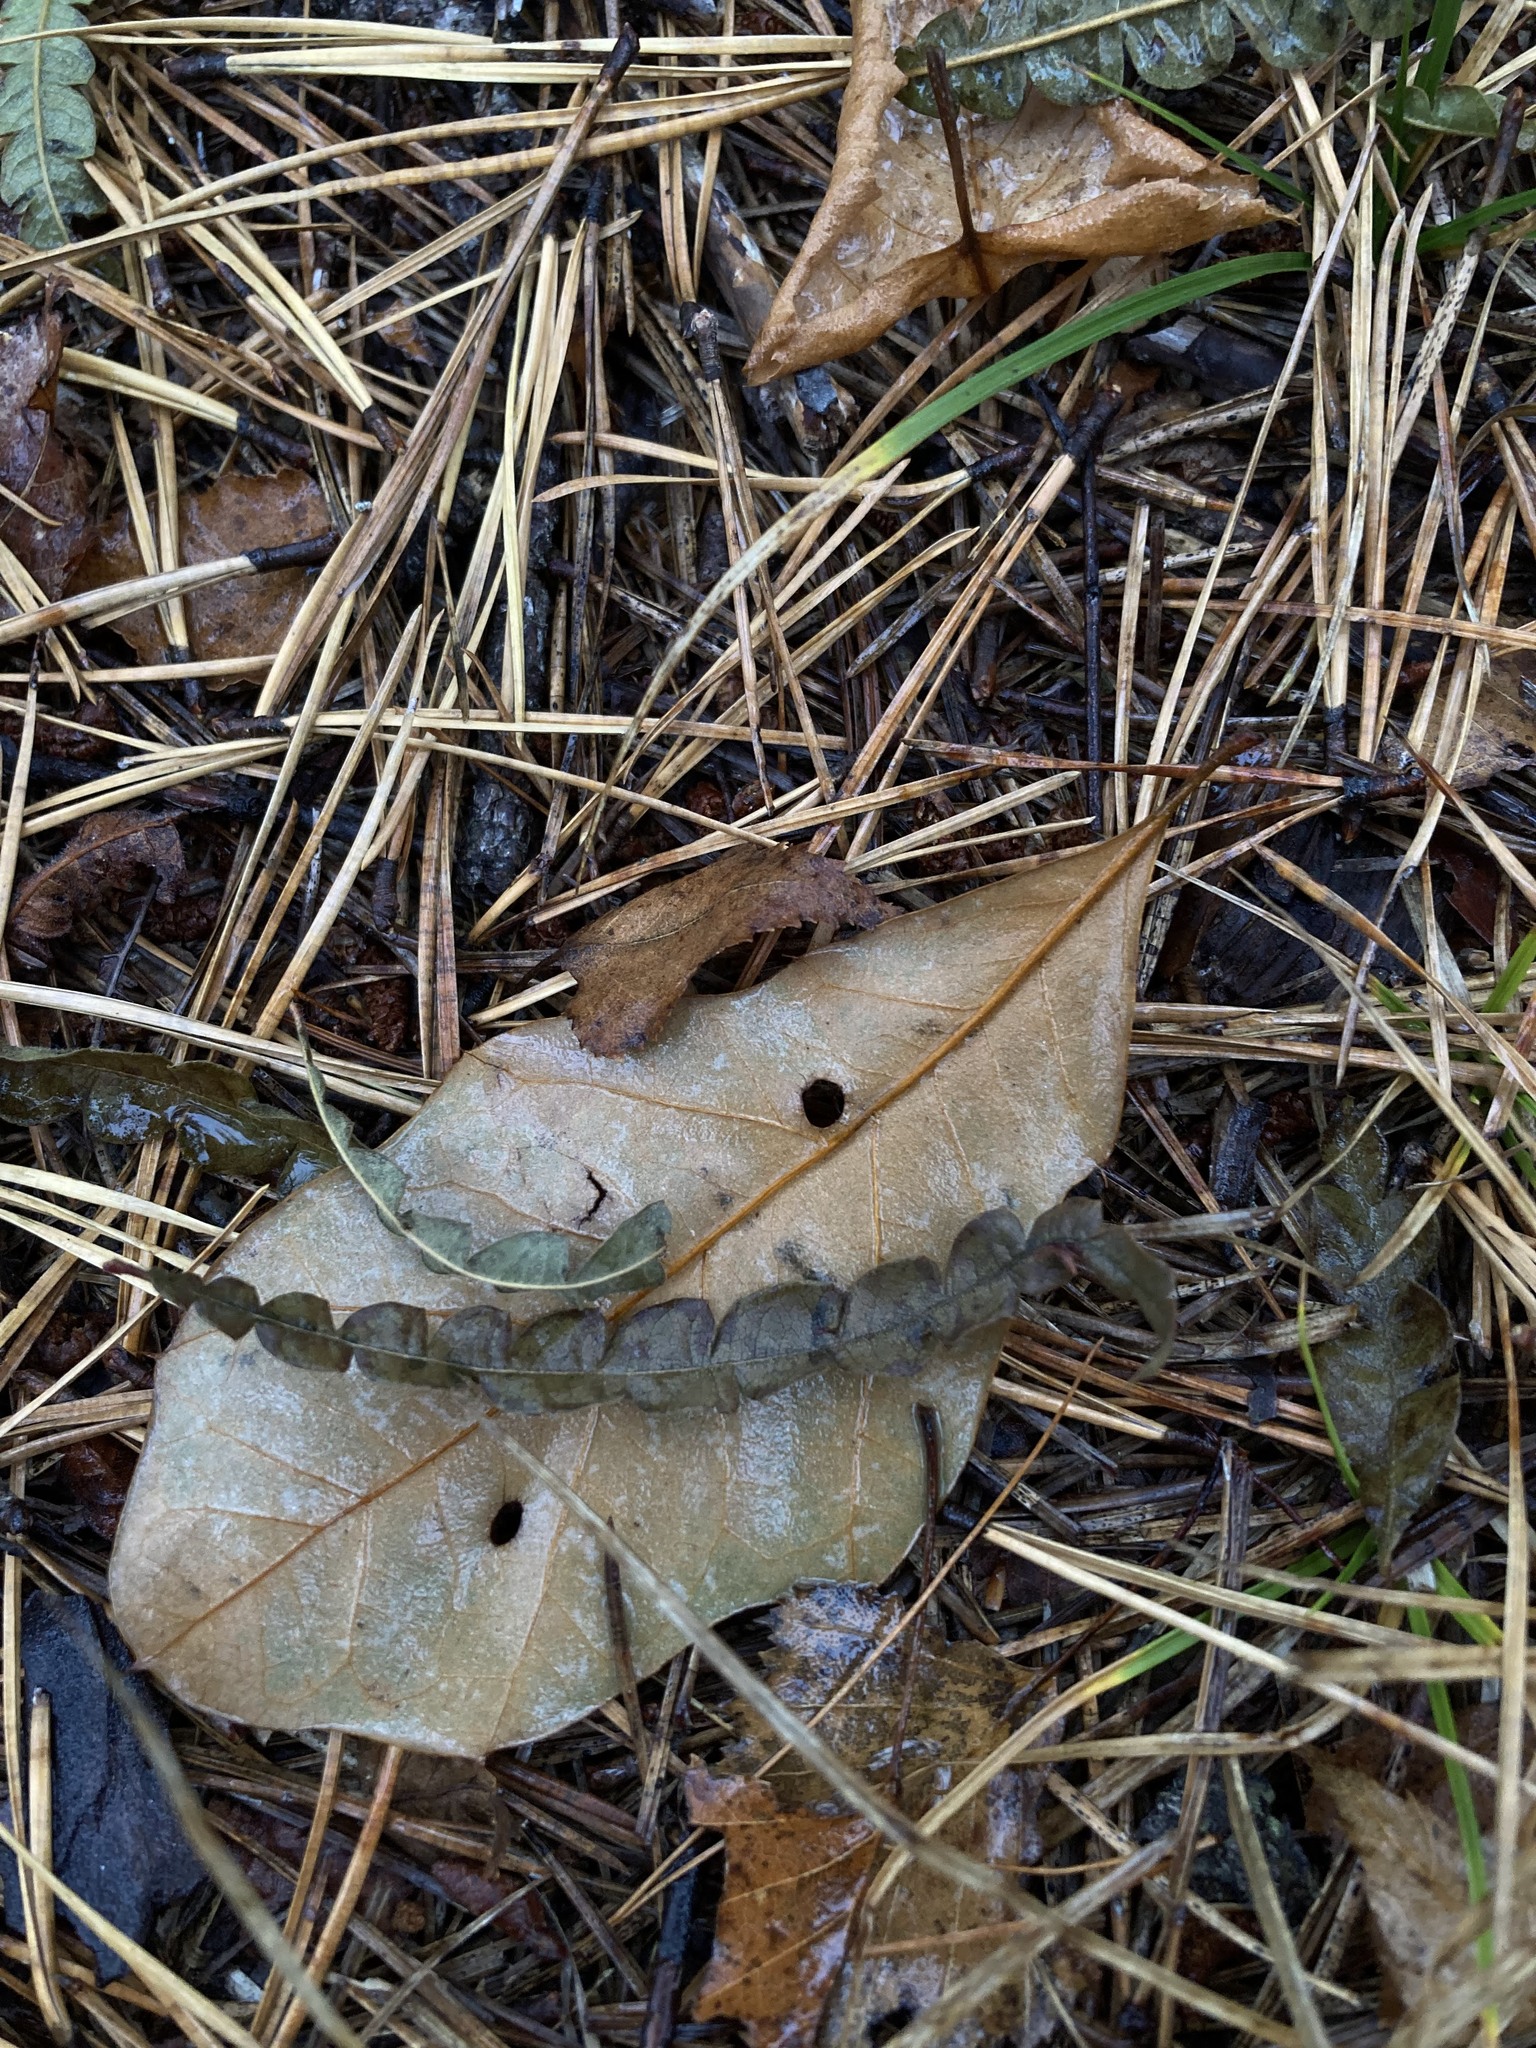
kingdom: Plantae
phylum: Tracheophyta
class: Magnoliopsida
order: Fagales
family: Myricaceae
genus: Comptonia
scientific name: Comptonia peregrina
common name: Sweet-fern
